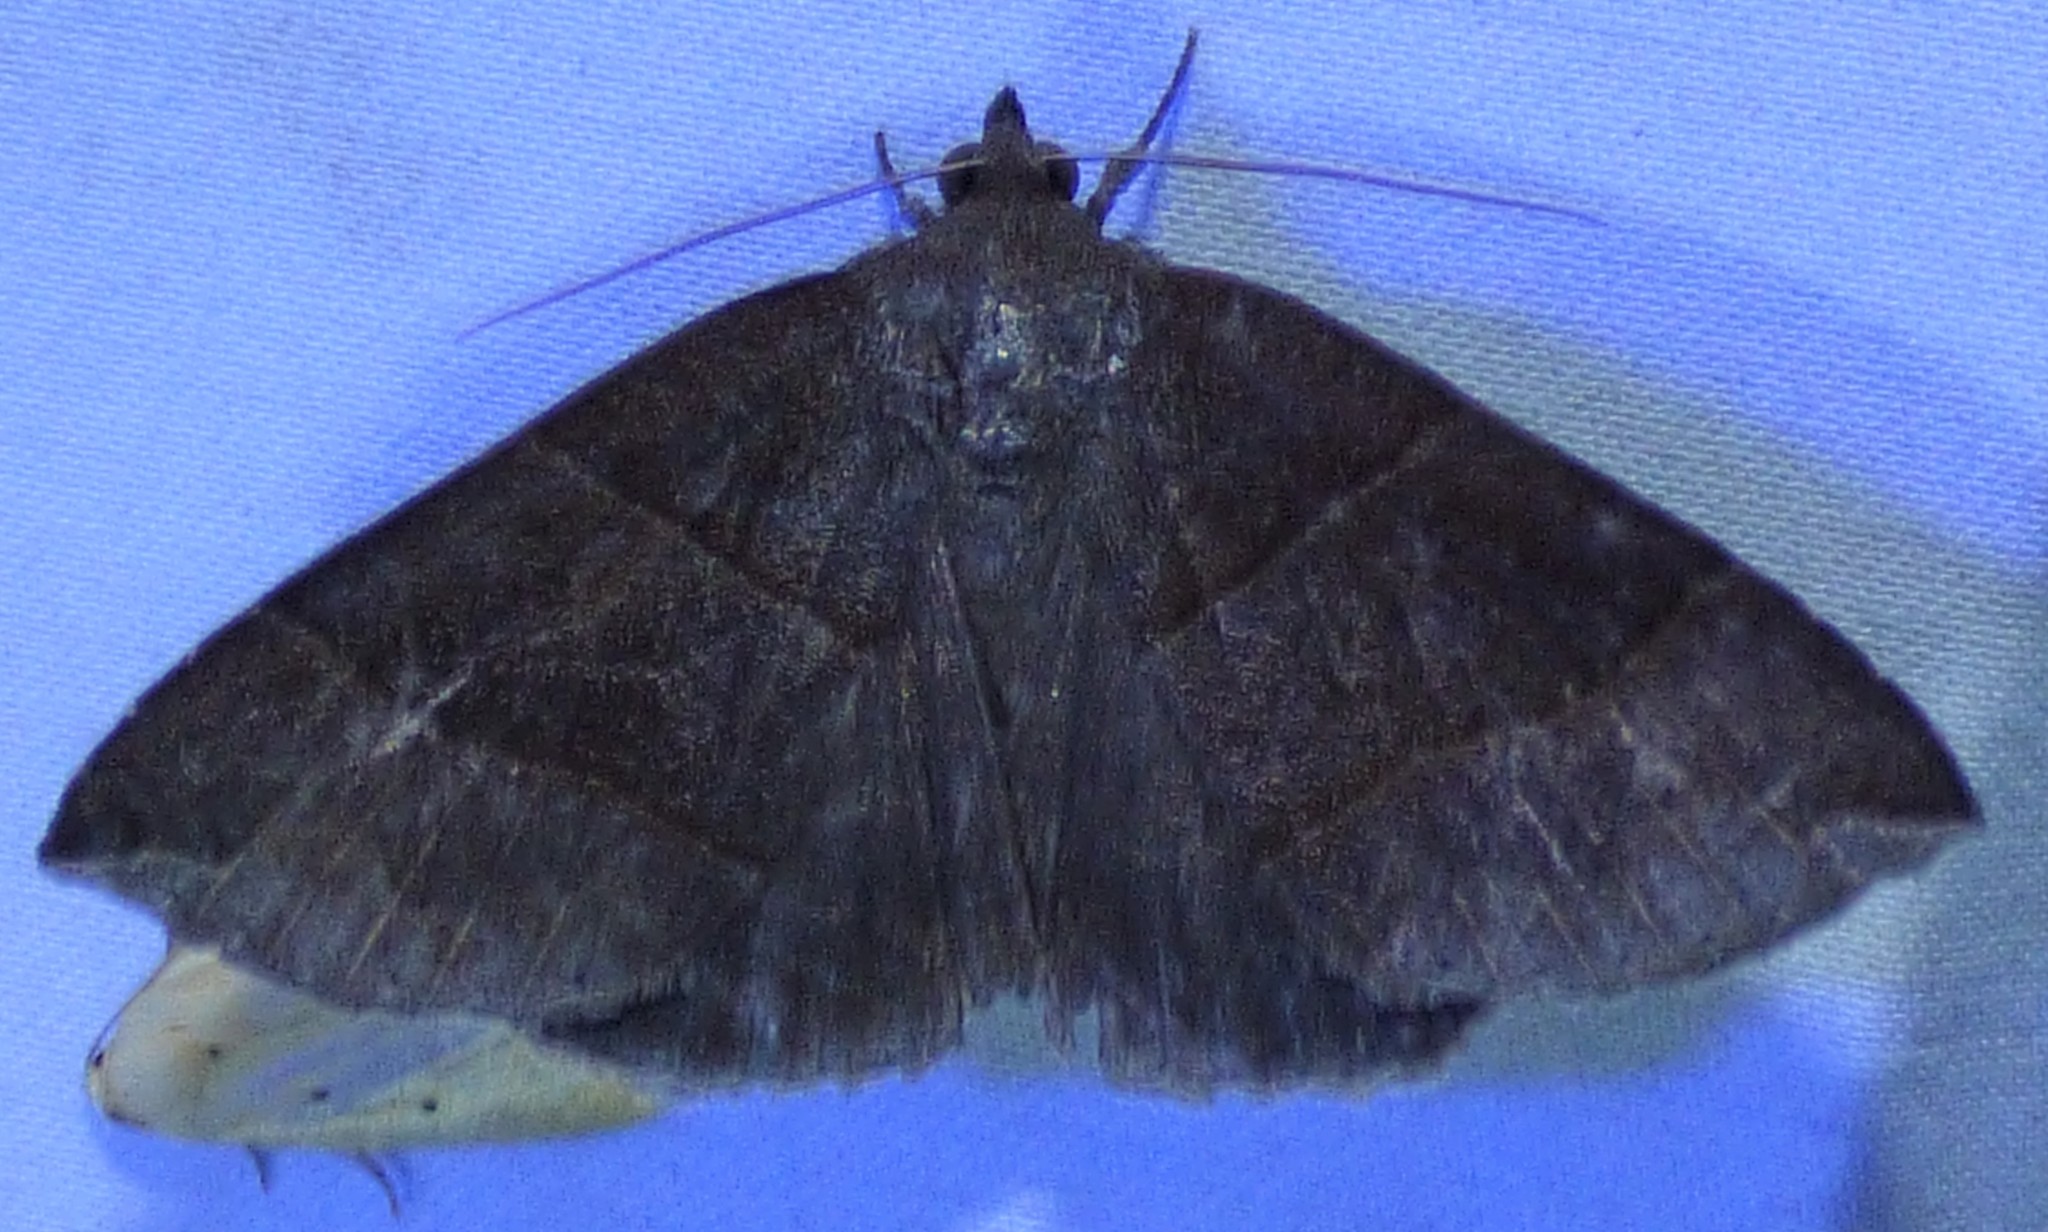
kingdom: Animalia
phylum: Arthropoda
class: Insecta
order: Lepidoptera
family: Erebidae
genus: Parallelia
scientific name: Parallelia bistriaris
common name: Maple looper moth
